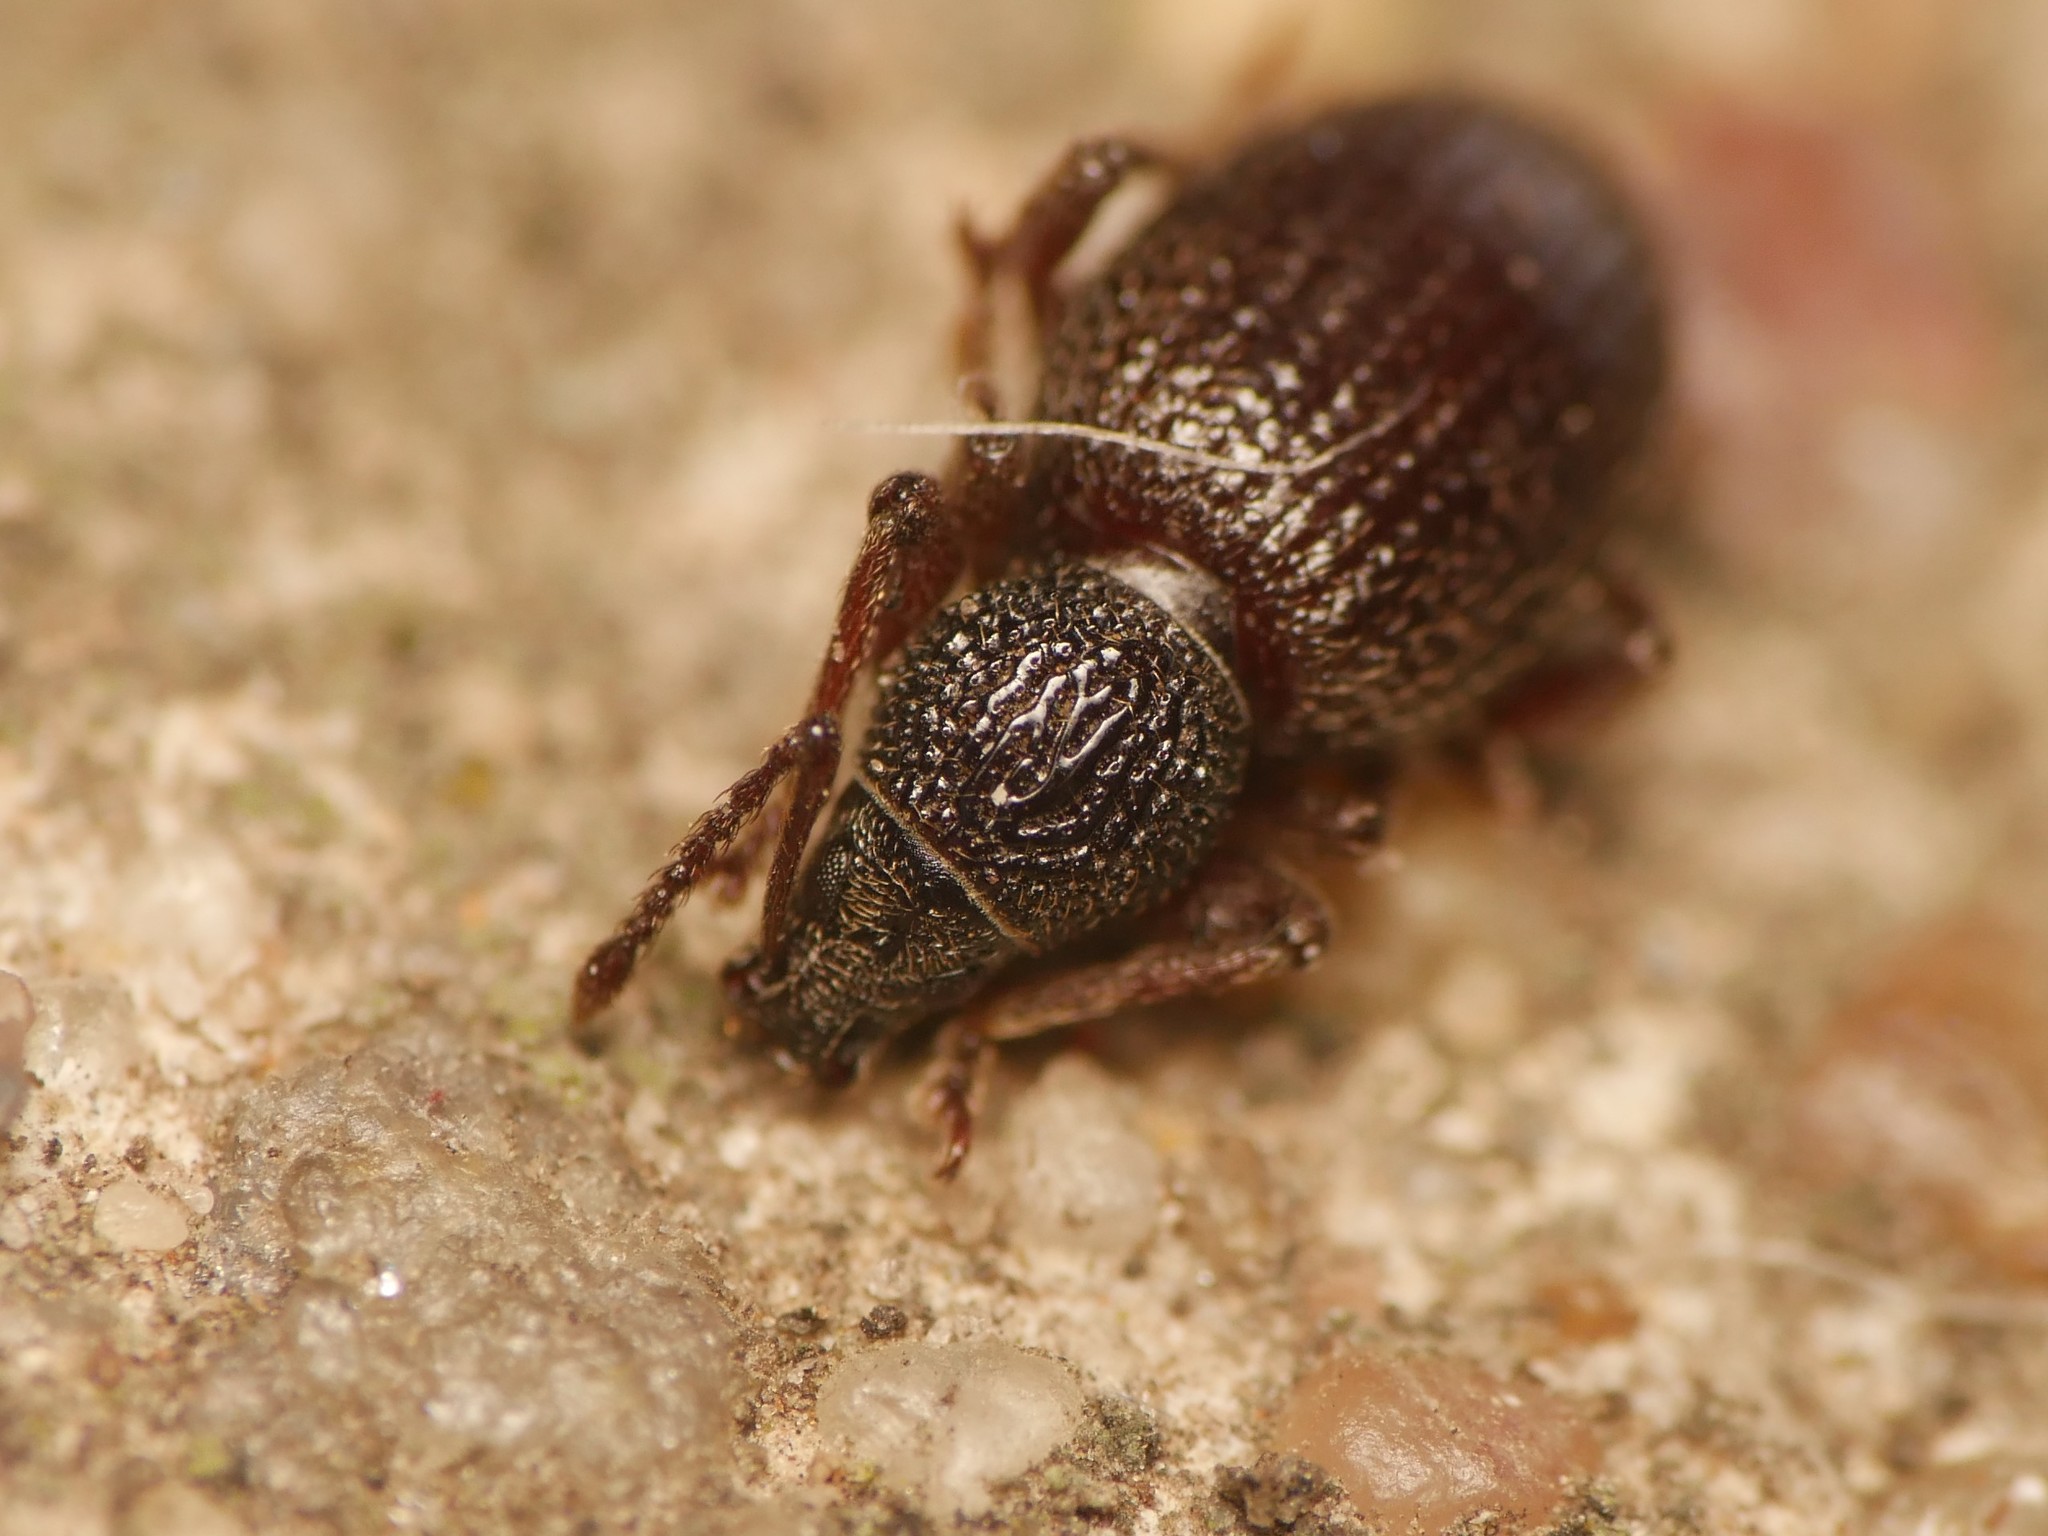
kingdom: Animalia
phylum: Arthropoda
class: Insecta
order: Coleoptera
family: Curculionidae
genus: Otiorhynchus
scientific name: Otiorhynchus ovatus
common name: Strawberry root weevil
